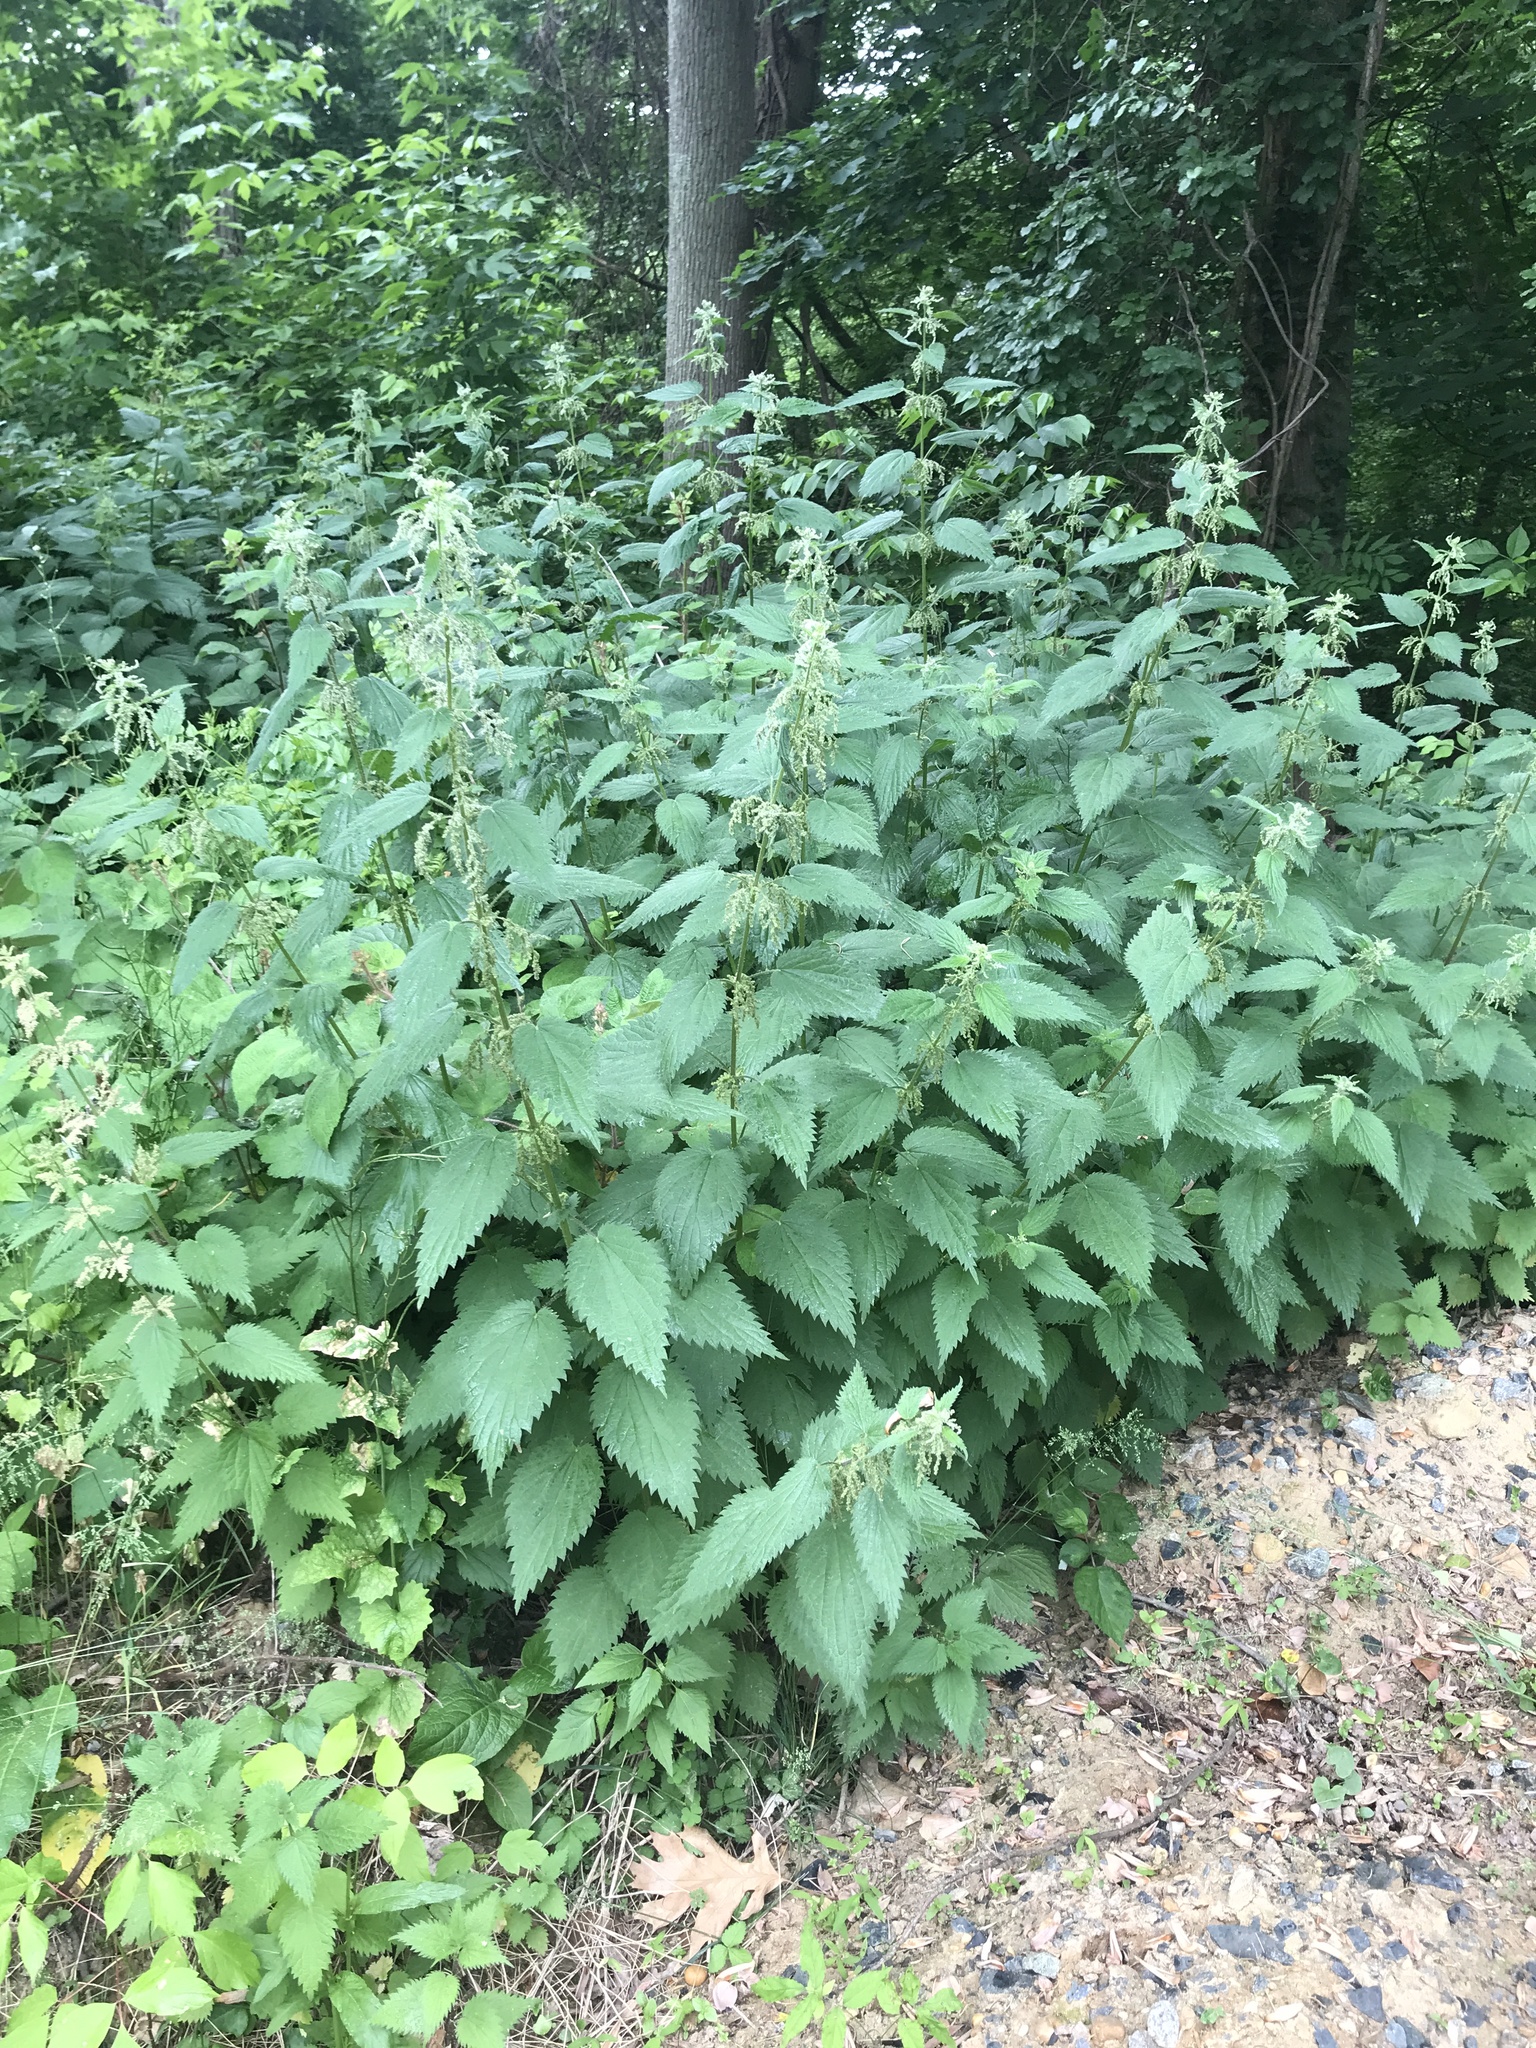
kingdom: Plantae
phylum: Tracheophyta
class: Magnoliopsida
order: Rosales
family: Urticaceae
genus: Urtica
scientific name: Urtica dioica
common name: Common nettle
